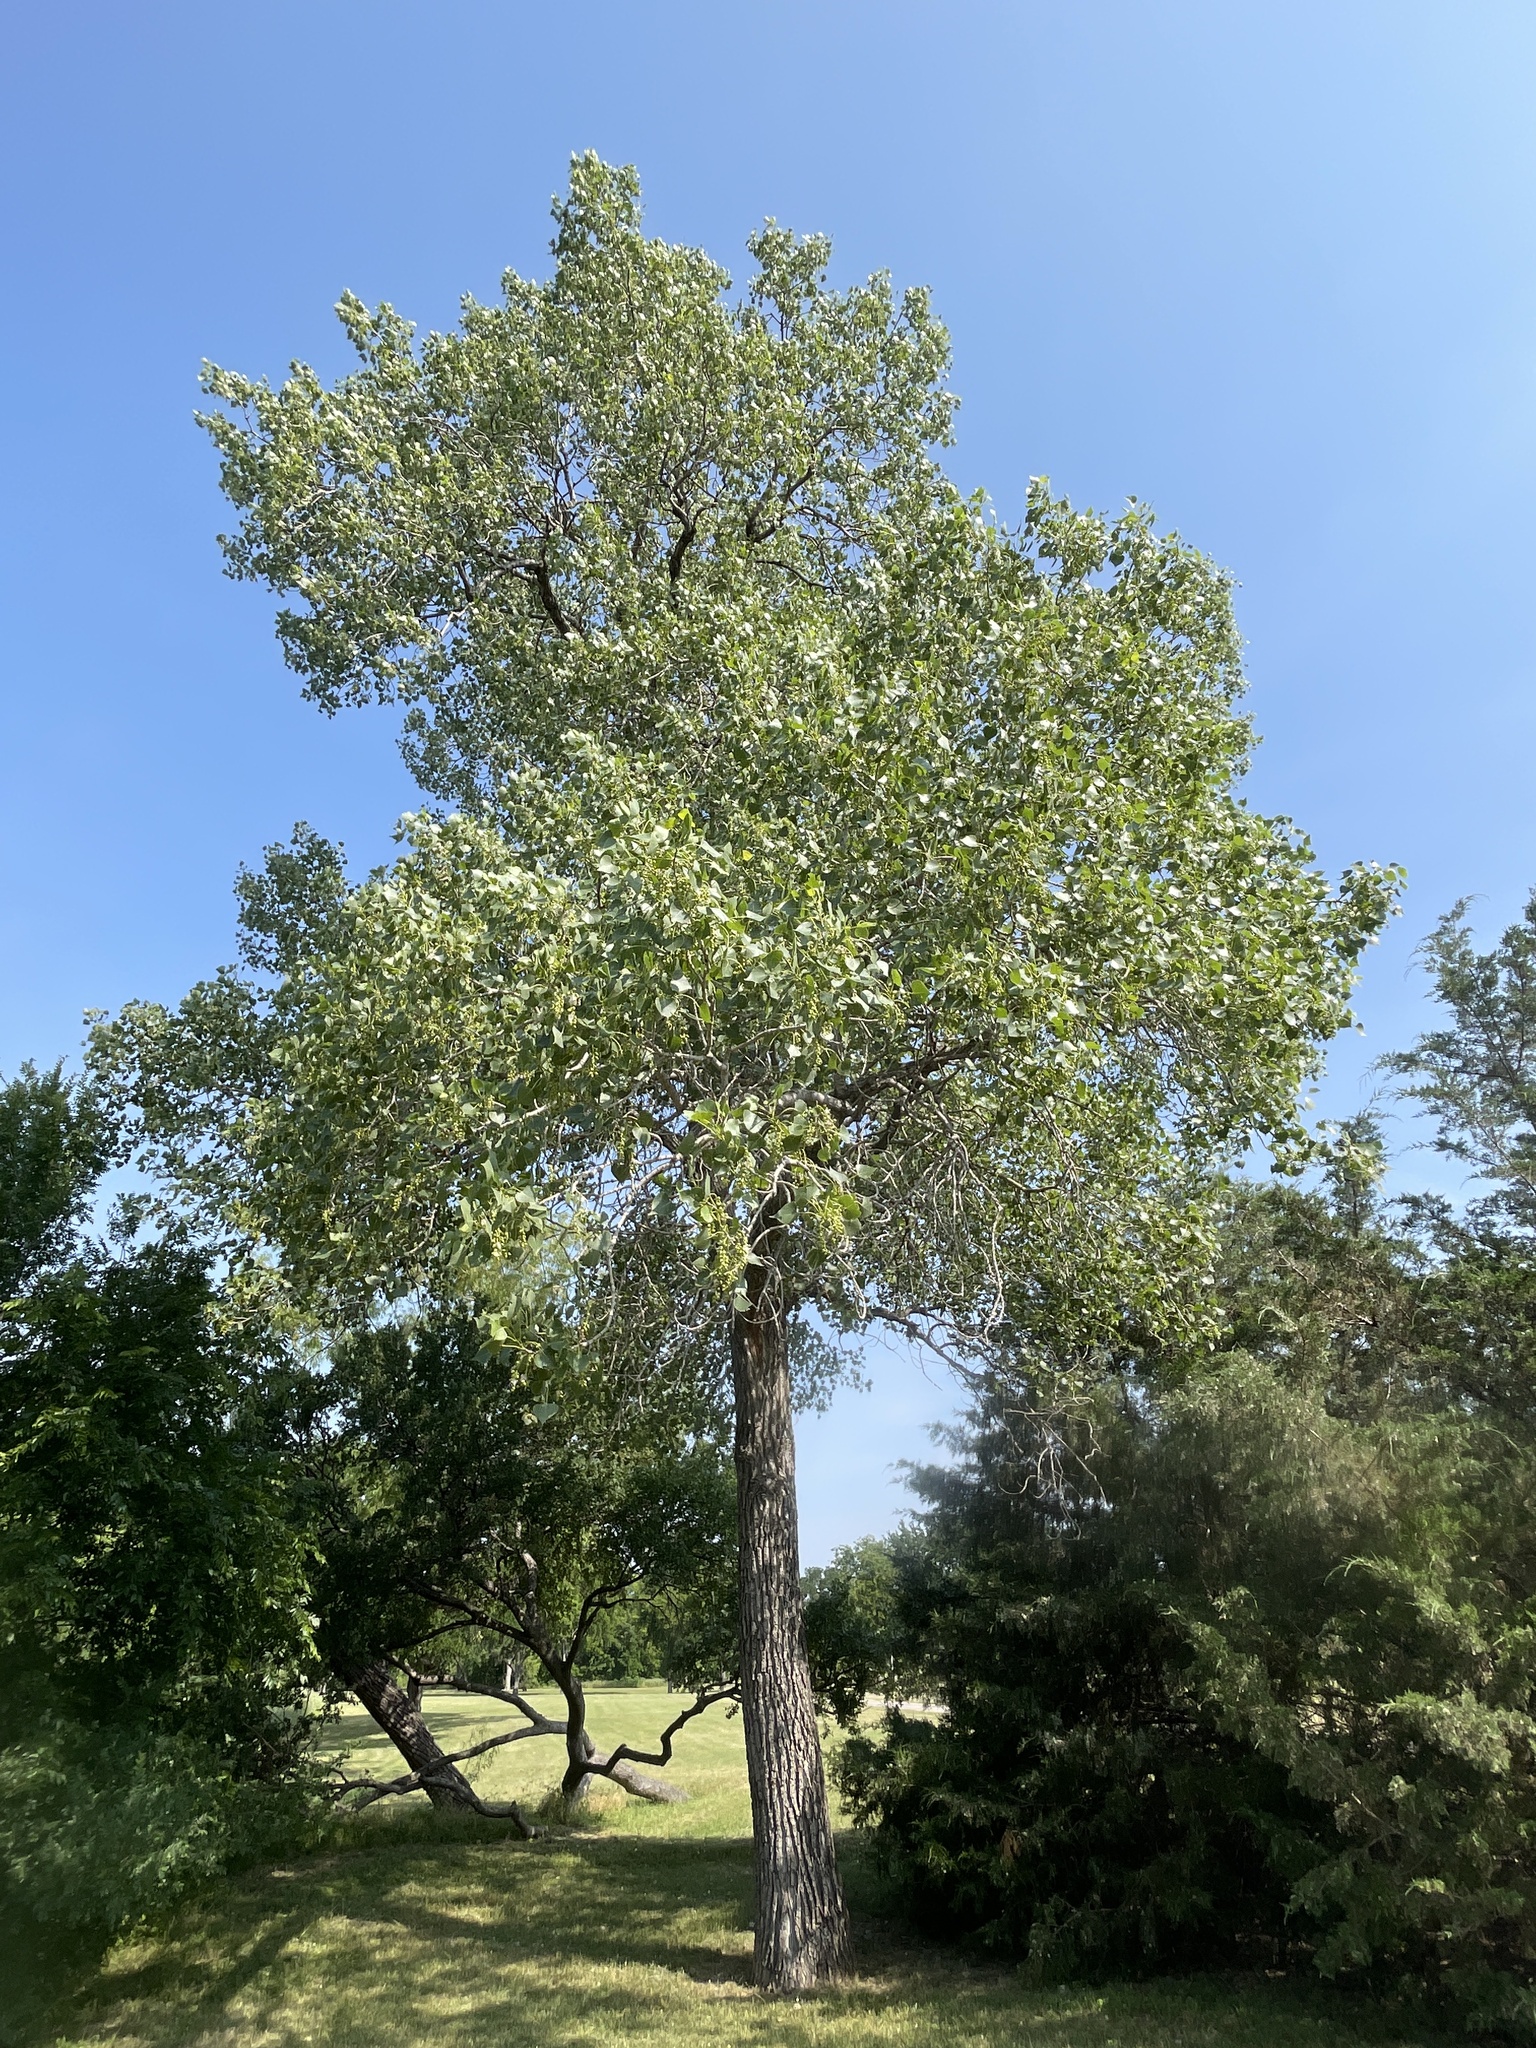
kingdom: Plantae
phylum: Tracheophyta
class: Magnoliopsida
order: Malpighiales
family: Salicaceae
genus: Populus
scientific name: Populus deltoides
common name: Eastern cottonwood
